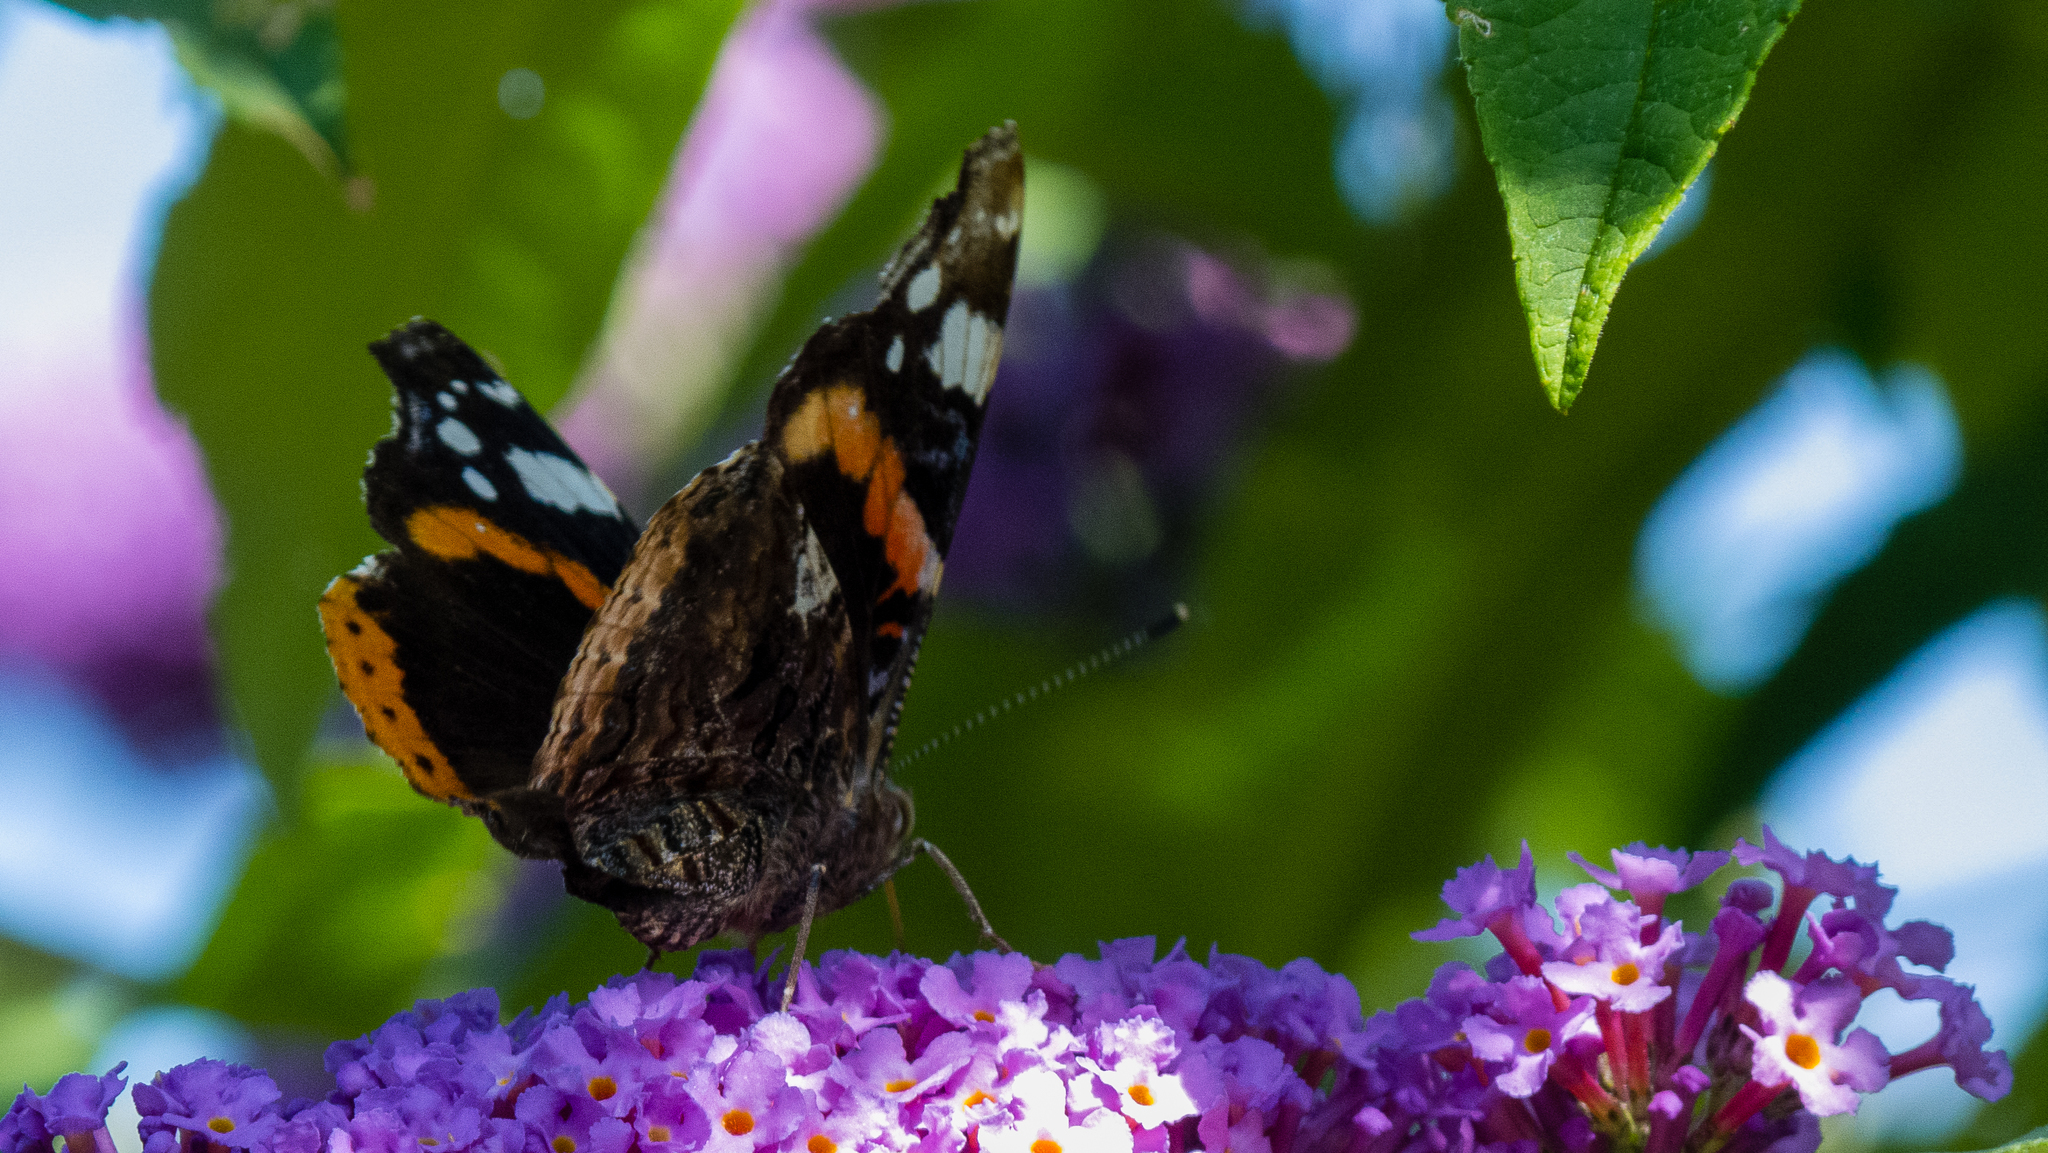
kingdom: Animalia
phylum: Arthropoda
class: Insecta
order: Lepidoptera
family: Nymphalidae
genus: Vanessa
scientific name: Vanessa atalanta
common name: Red admiral
